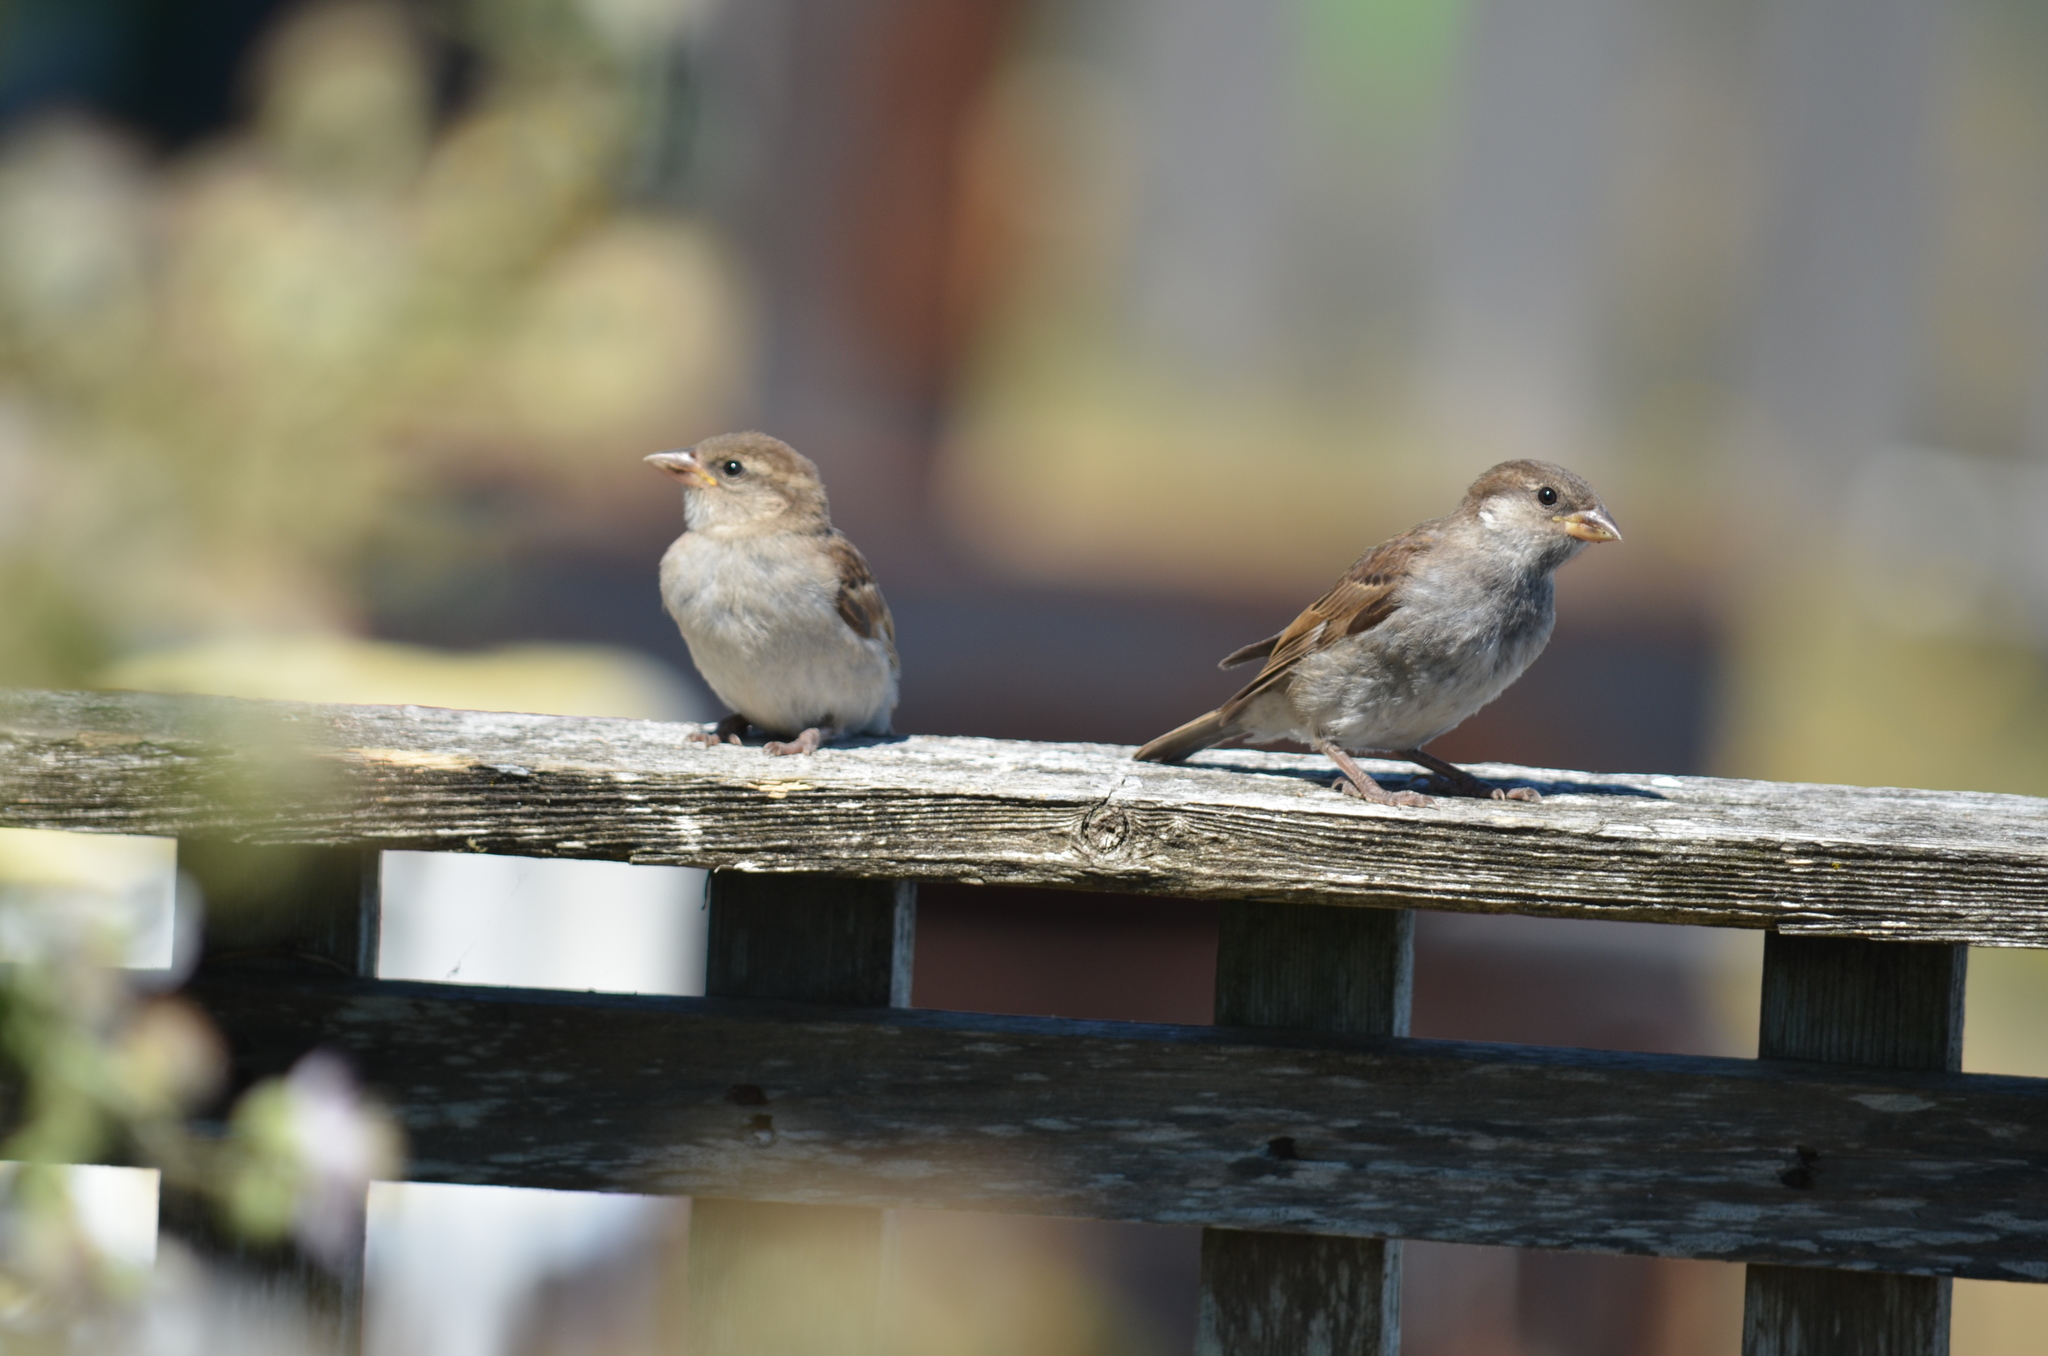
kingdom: Animalia
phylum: Chordata
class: Aves
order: Passeriformes
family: Passeridae
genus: Passer
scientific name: Passer domesticus
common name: House sparrow
